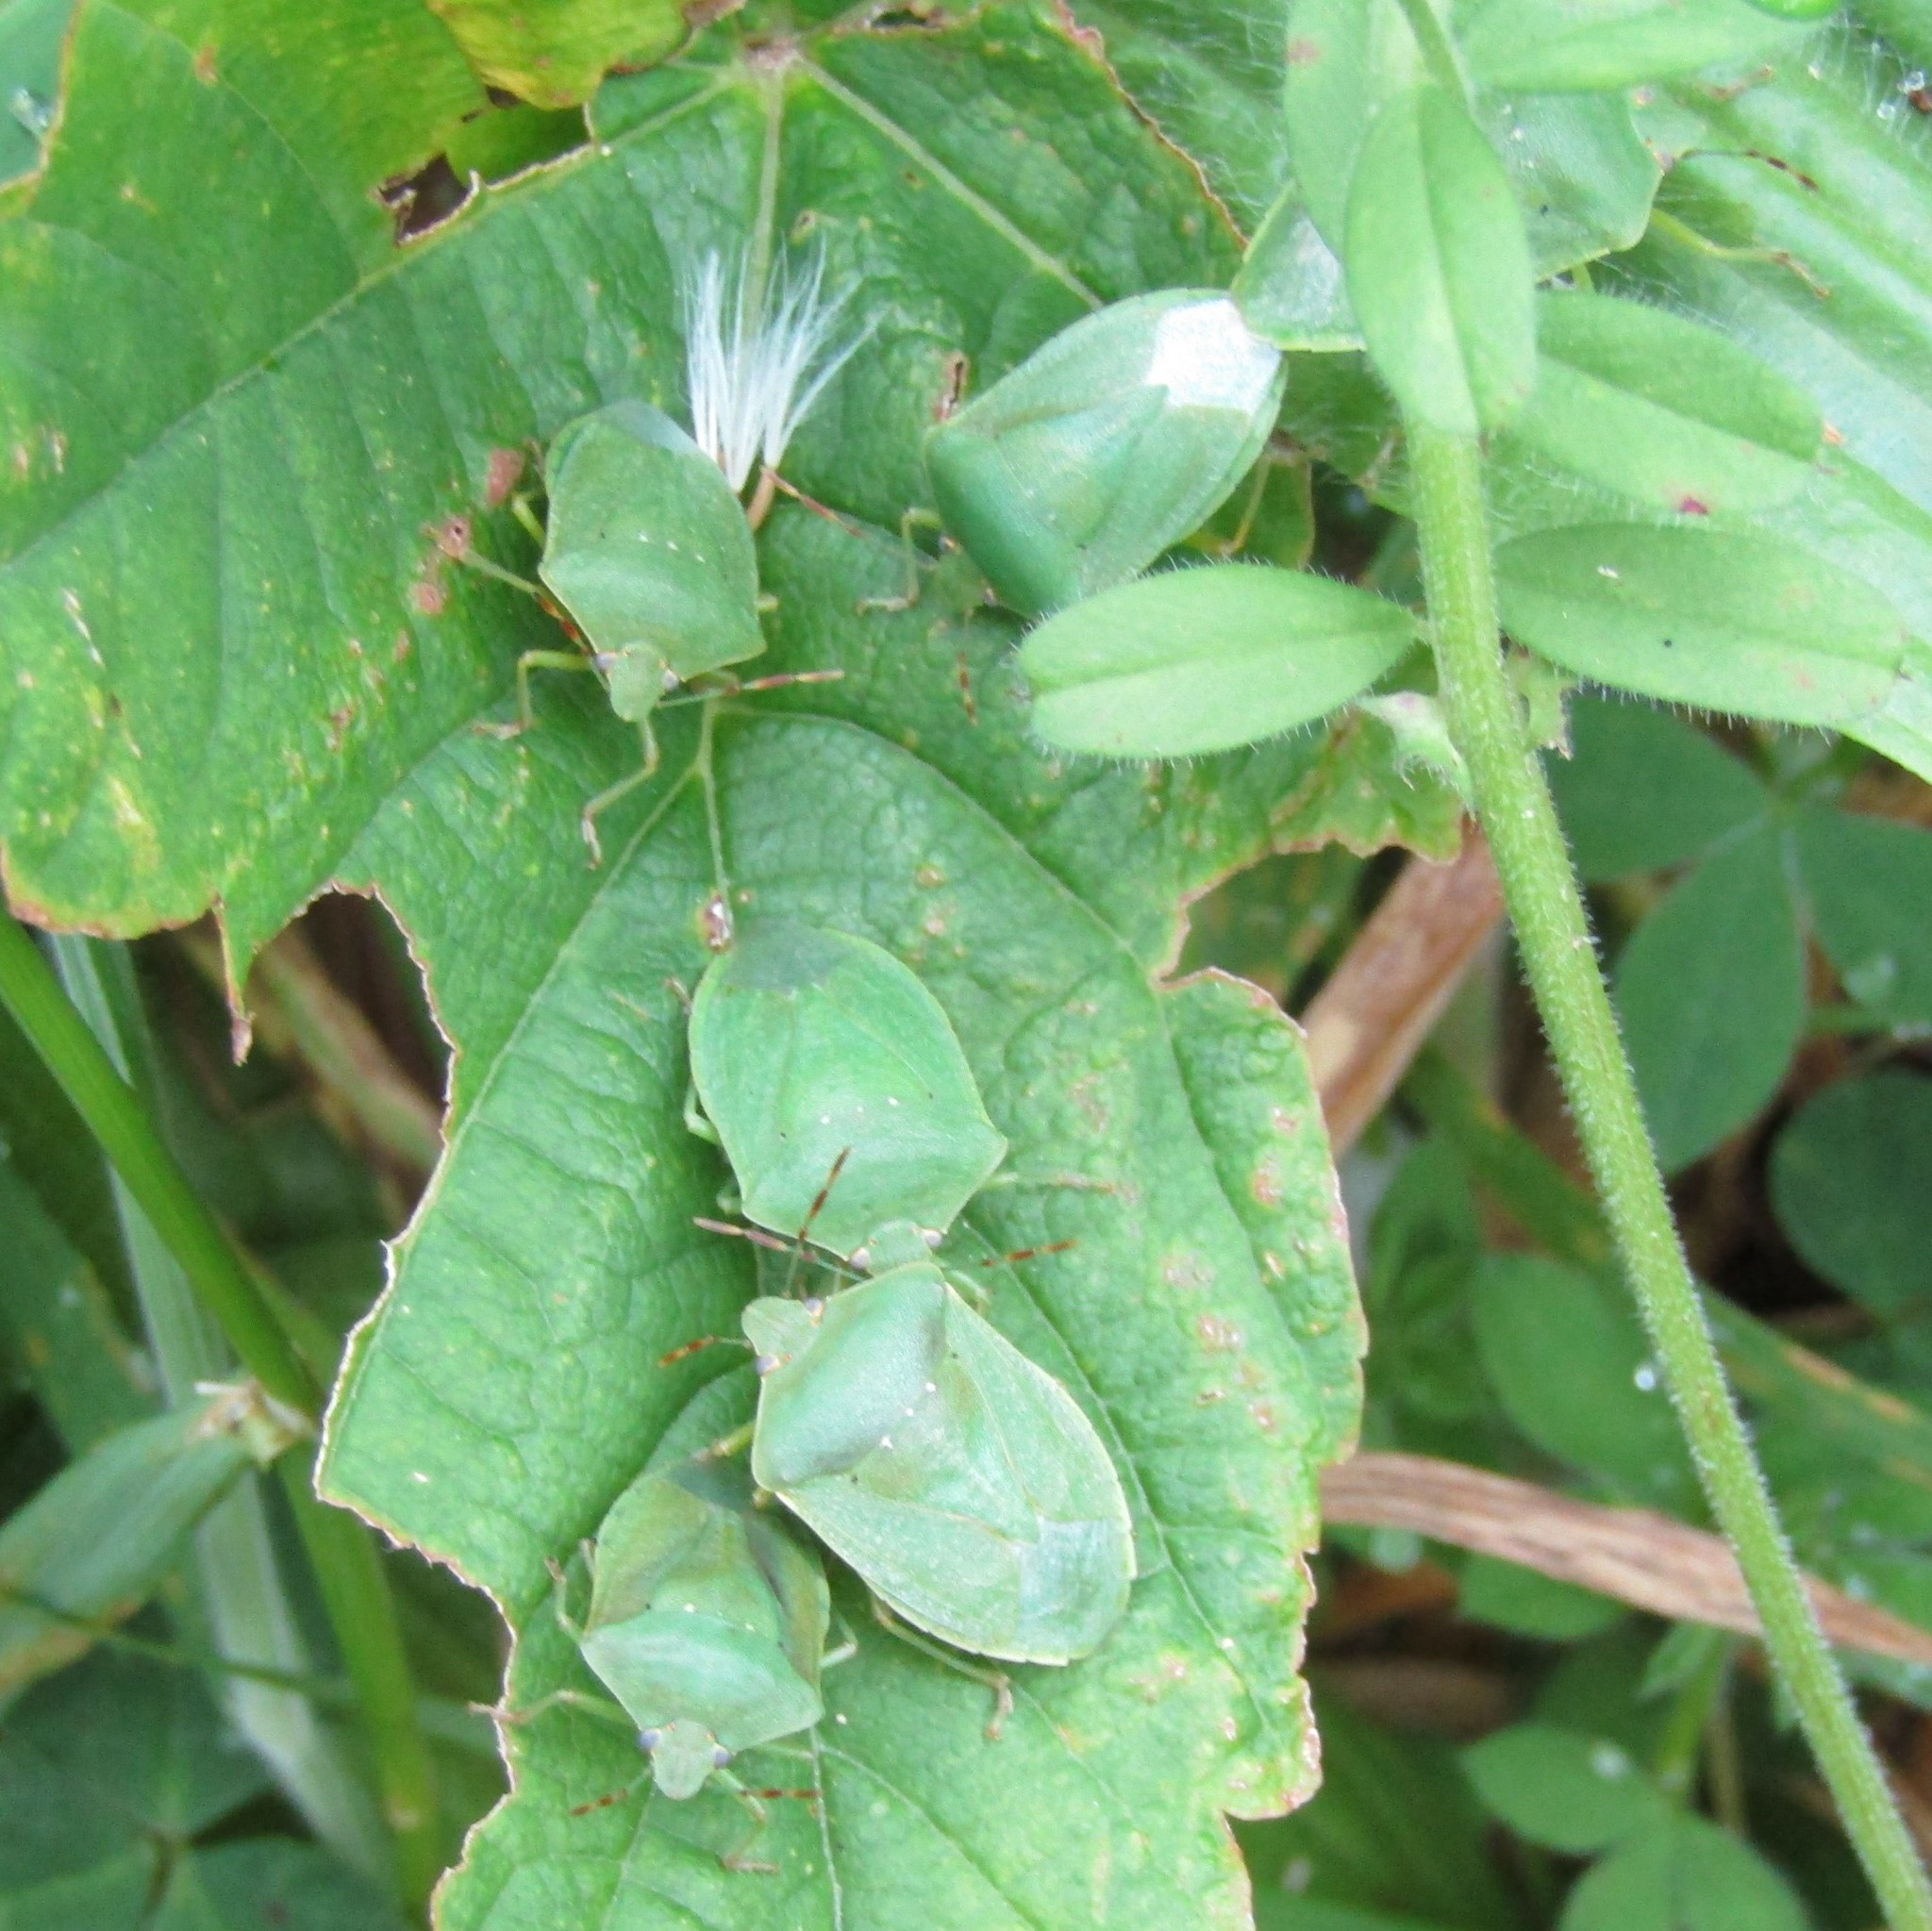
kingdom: Animalia
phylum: Arthropoda
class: Insecta
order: Hemiptera
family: Pentatomidae
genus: Nezara
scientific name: Nezara viridula
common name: Southern green stink bug
